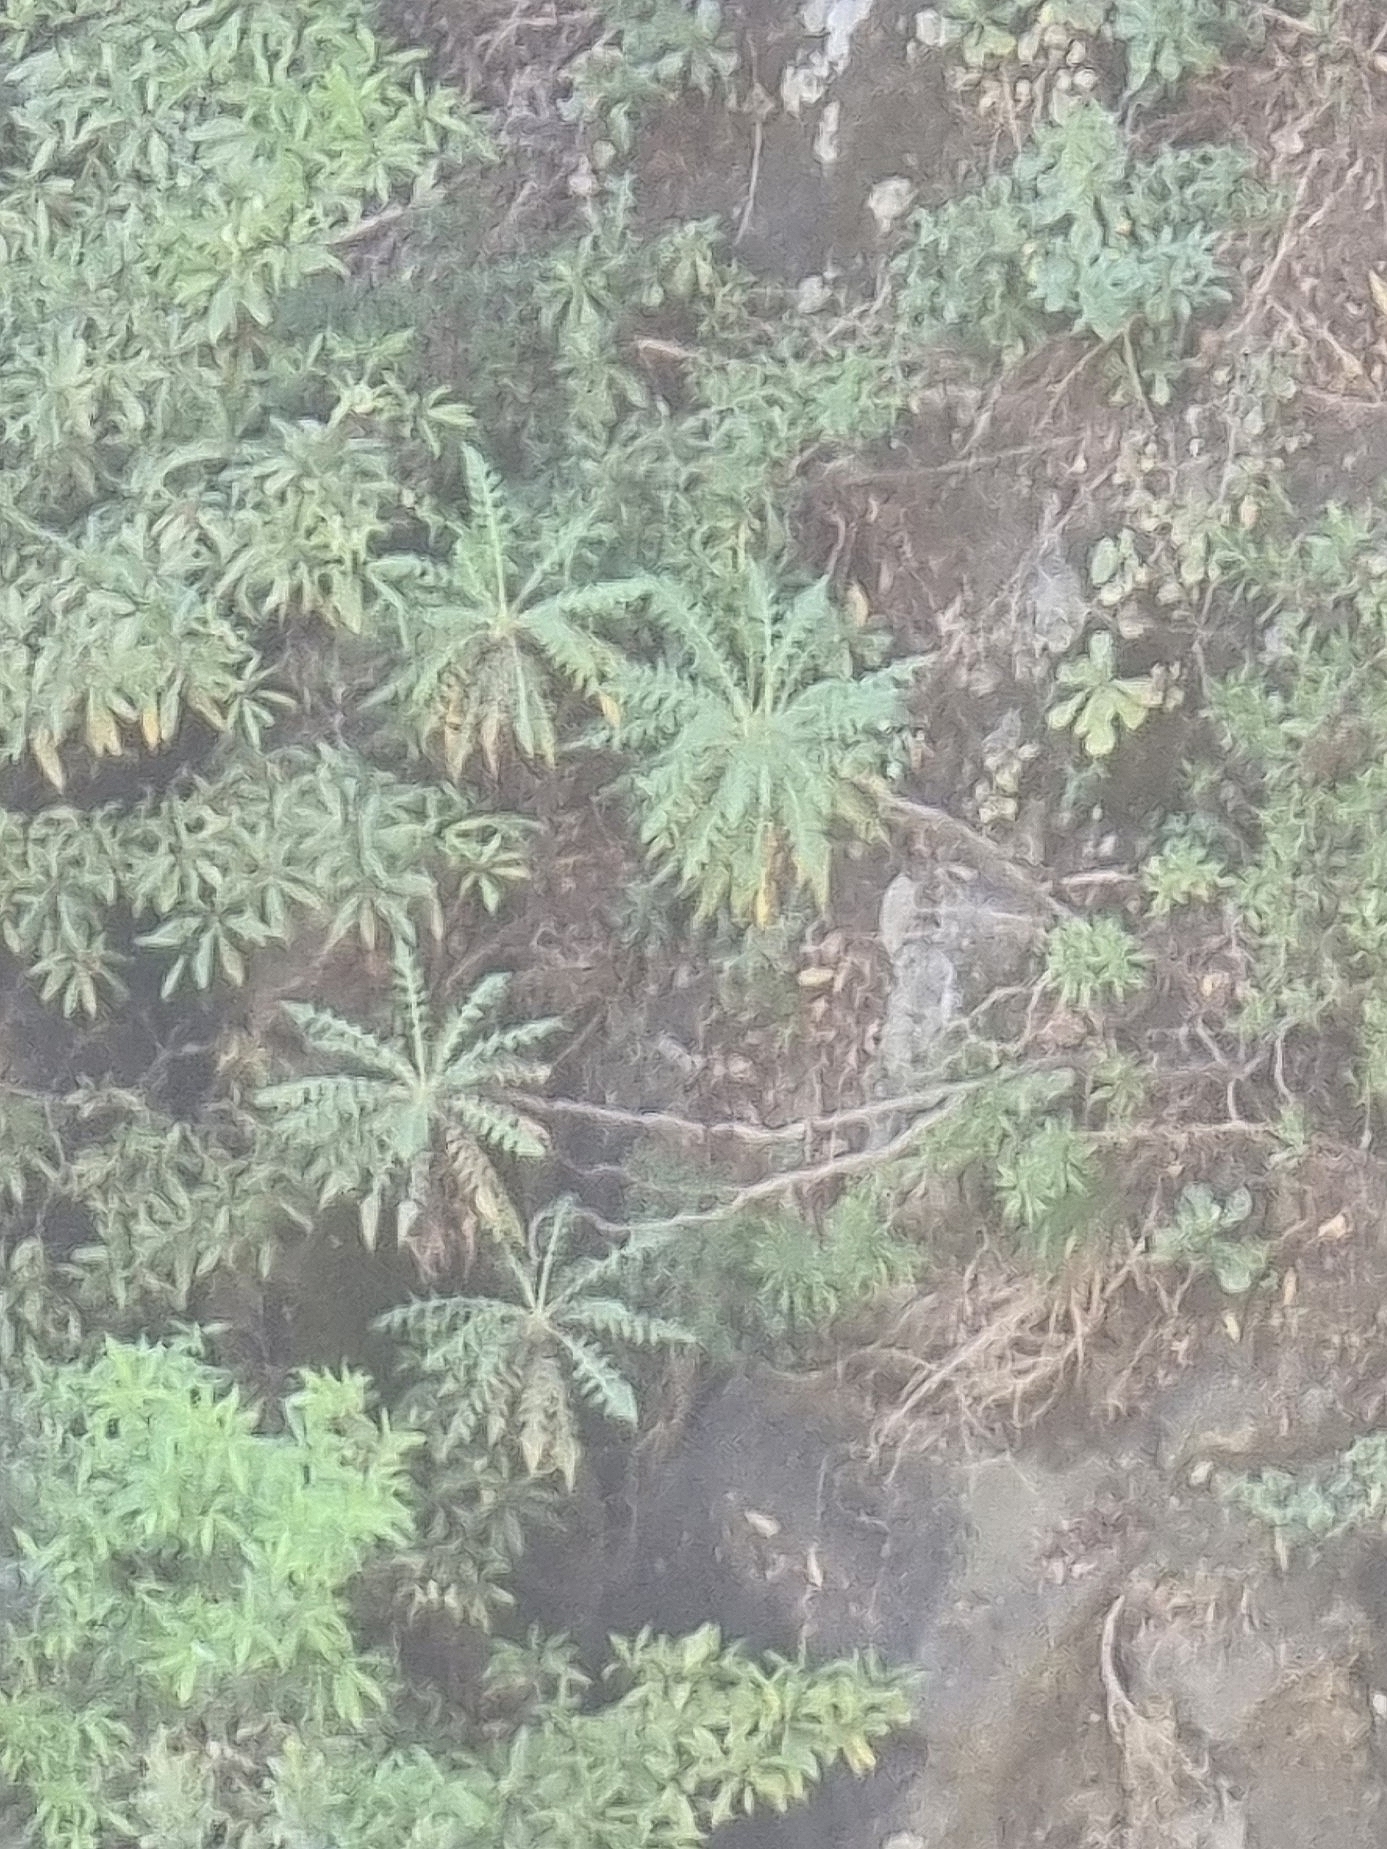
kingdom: Plantae
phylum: Tracheophyta
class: Magnoliopsida
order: Asterales
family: Asteraceae
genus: Sonchus
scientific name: Sonchus pinnatus
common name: Wing-leaved sow-thistle
